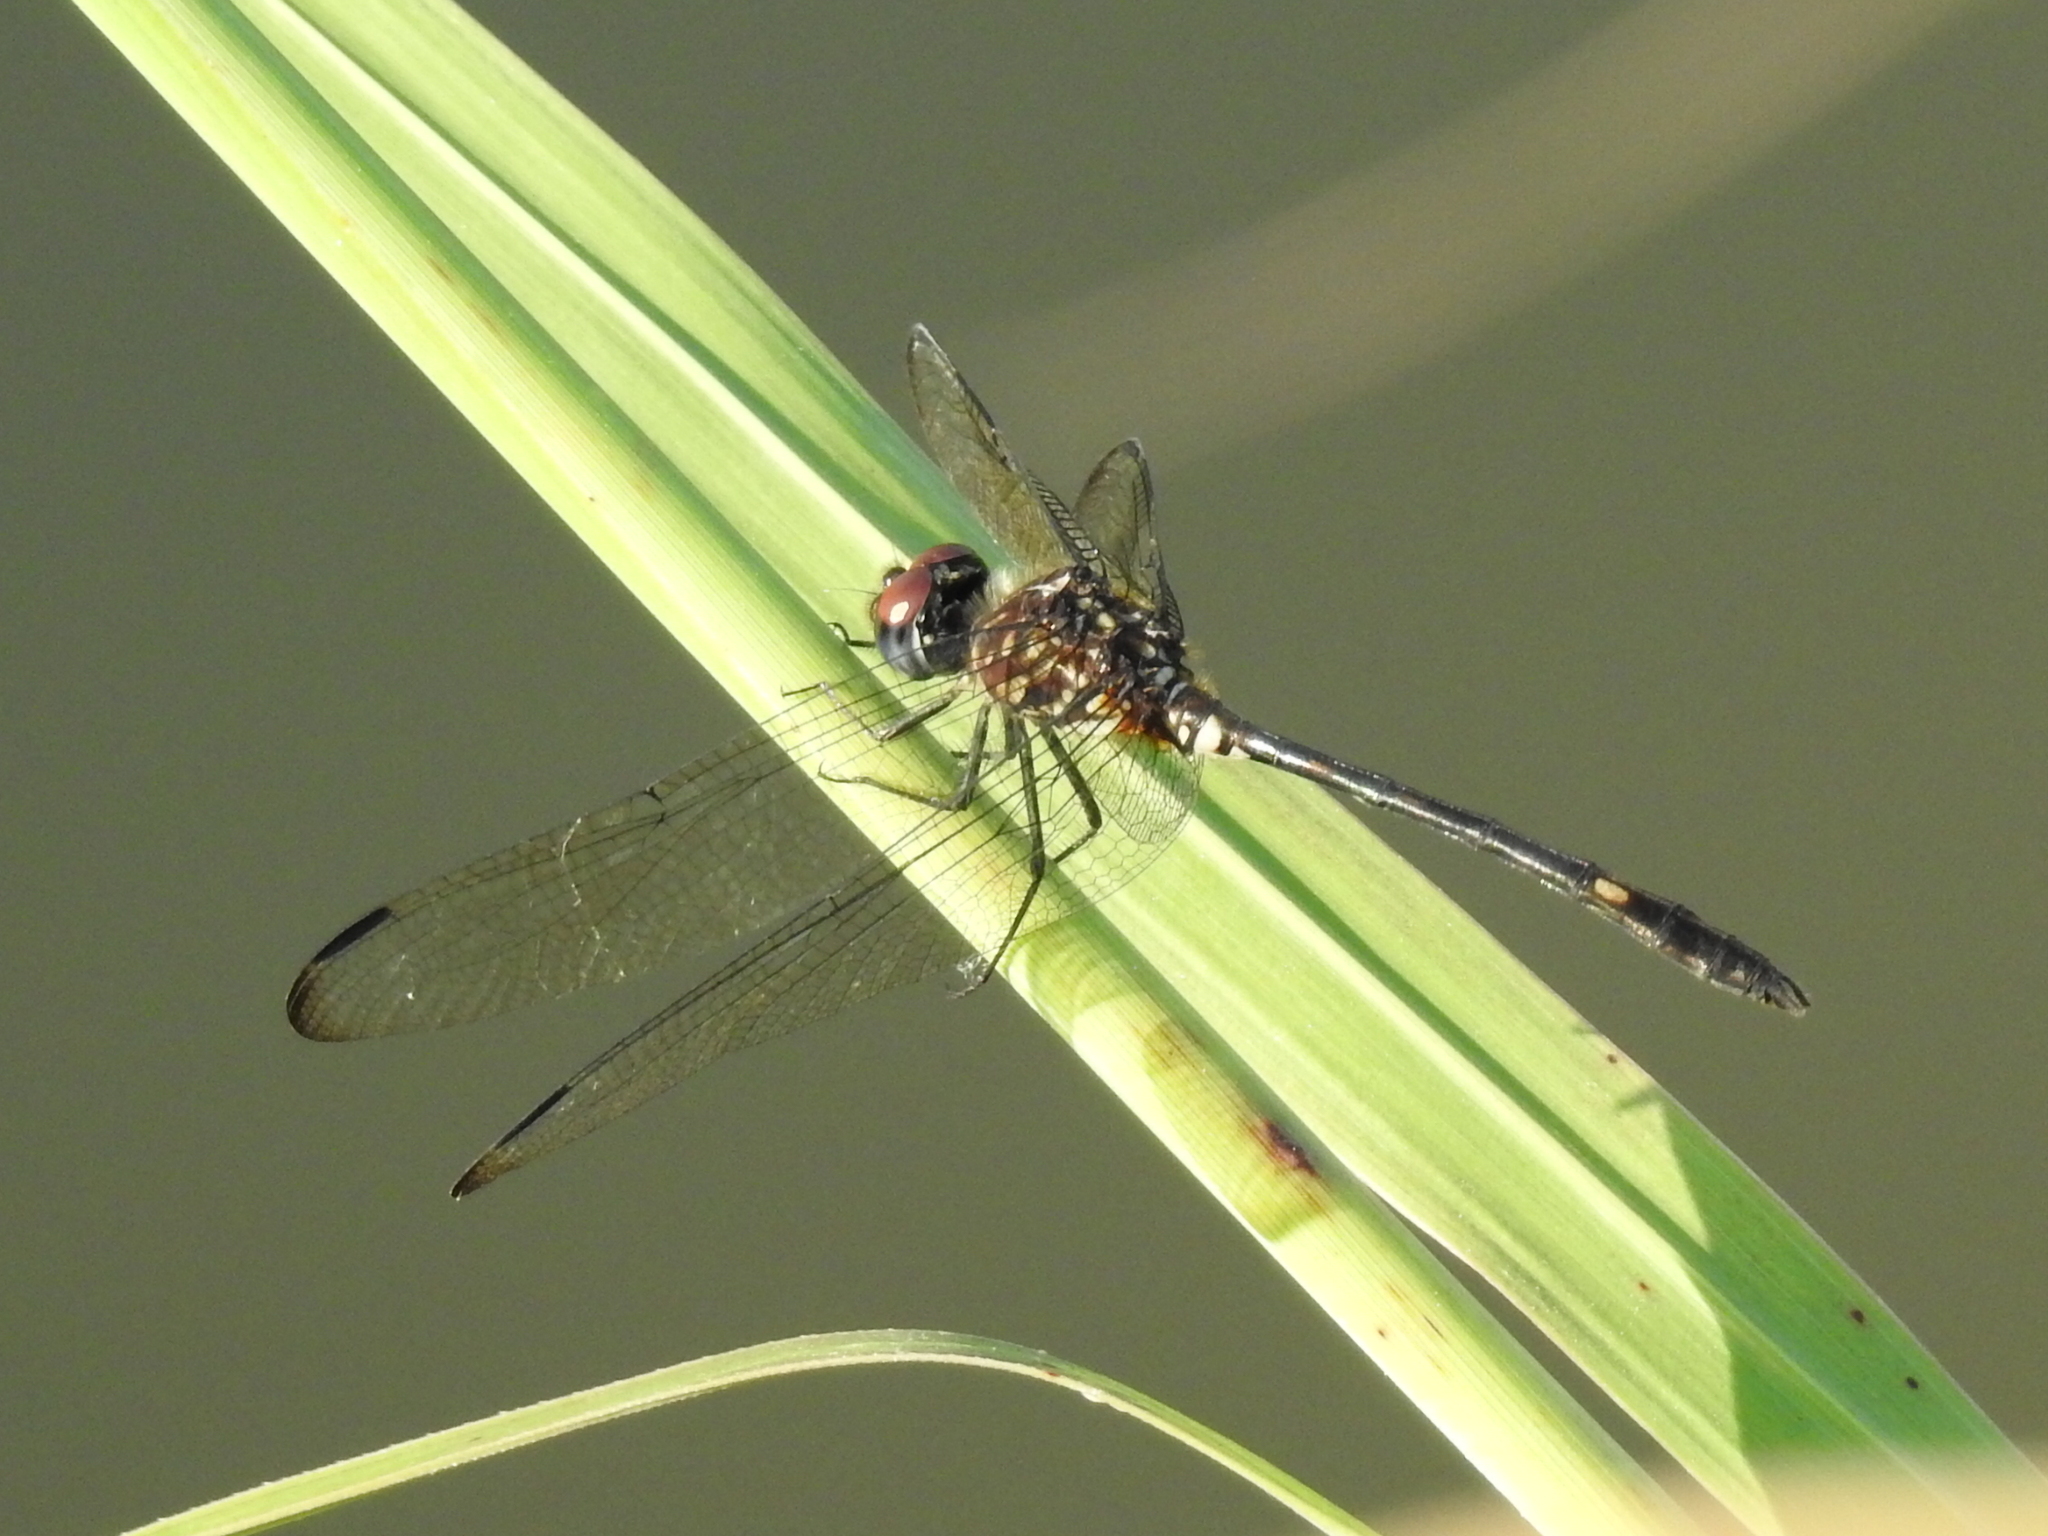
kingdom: Animalia
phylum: Arthropoda
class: Insecta
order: Odonata
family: Libellulidae
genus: Dythemis
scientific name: Dythemis velox
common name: Swift setwing
